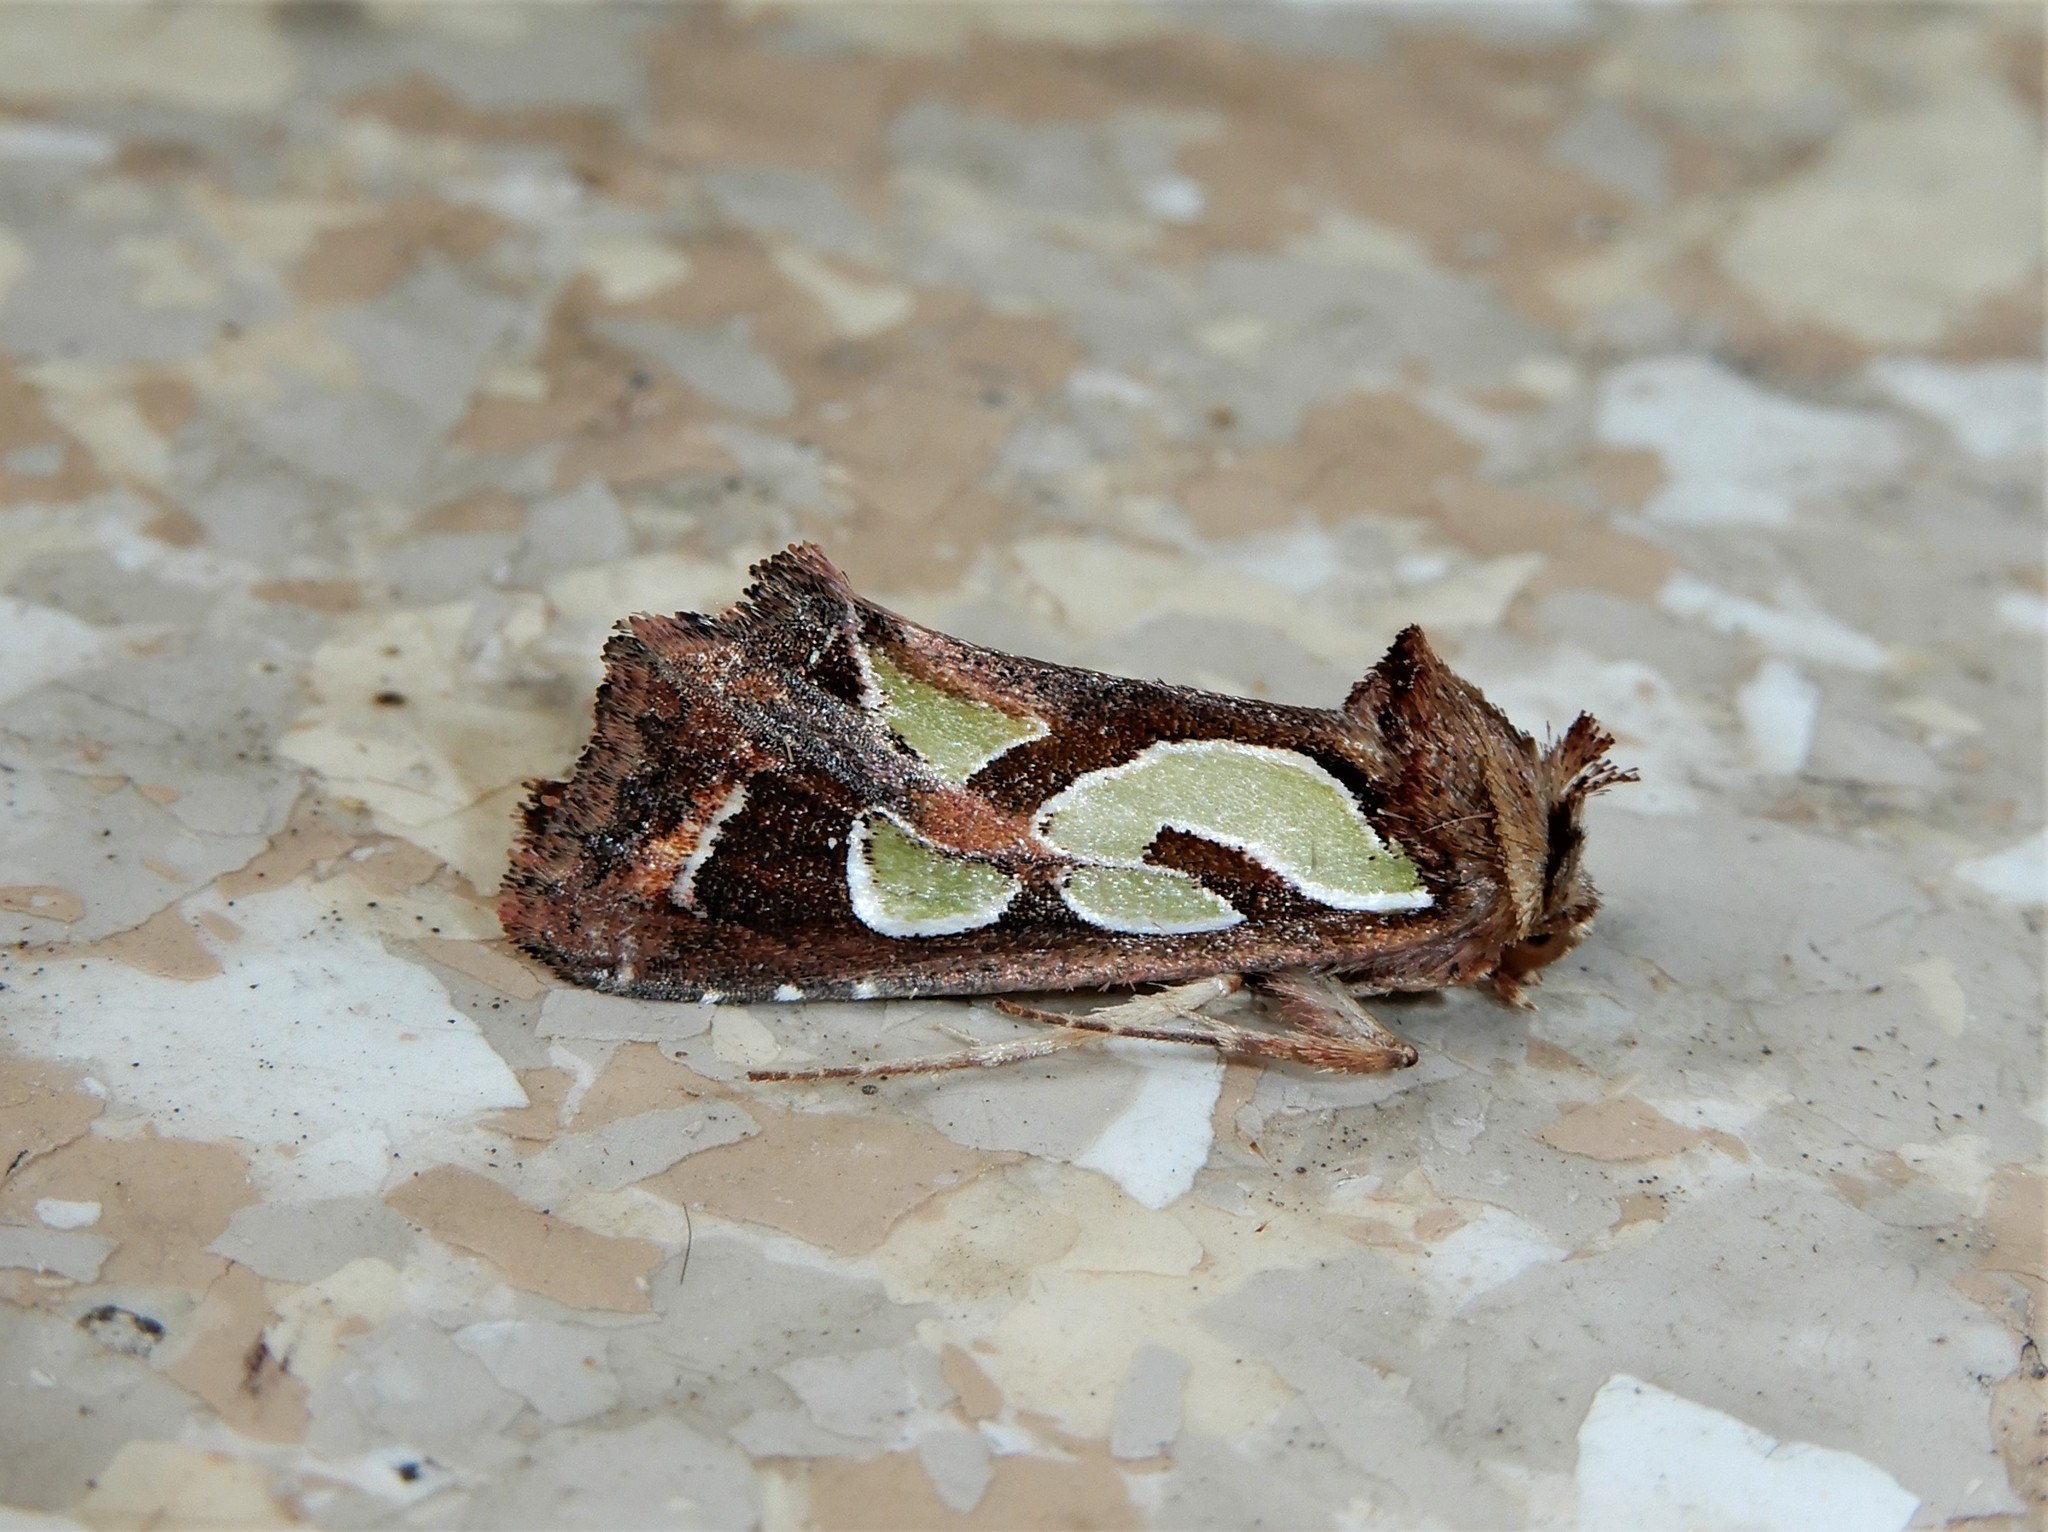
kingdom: Animalia
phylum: Arthropoda
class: Insecta
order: Lepidoptera
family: Noctuidae
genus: Cosmodes
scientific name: Cosmodes elegans
